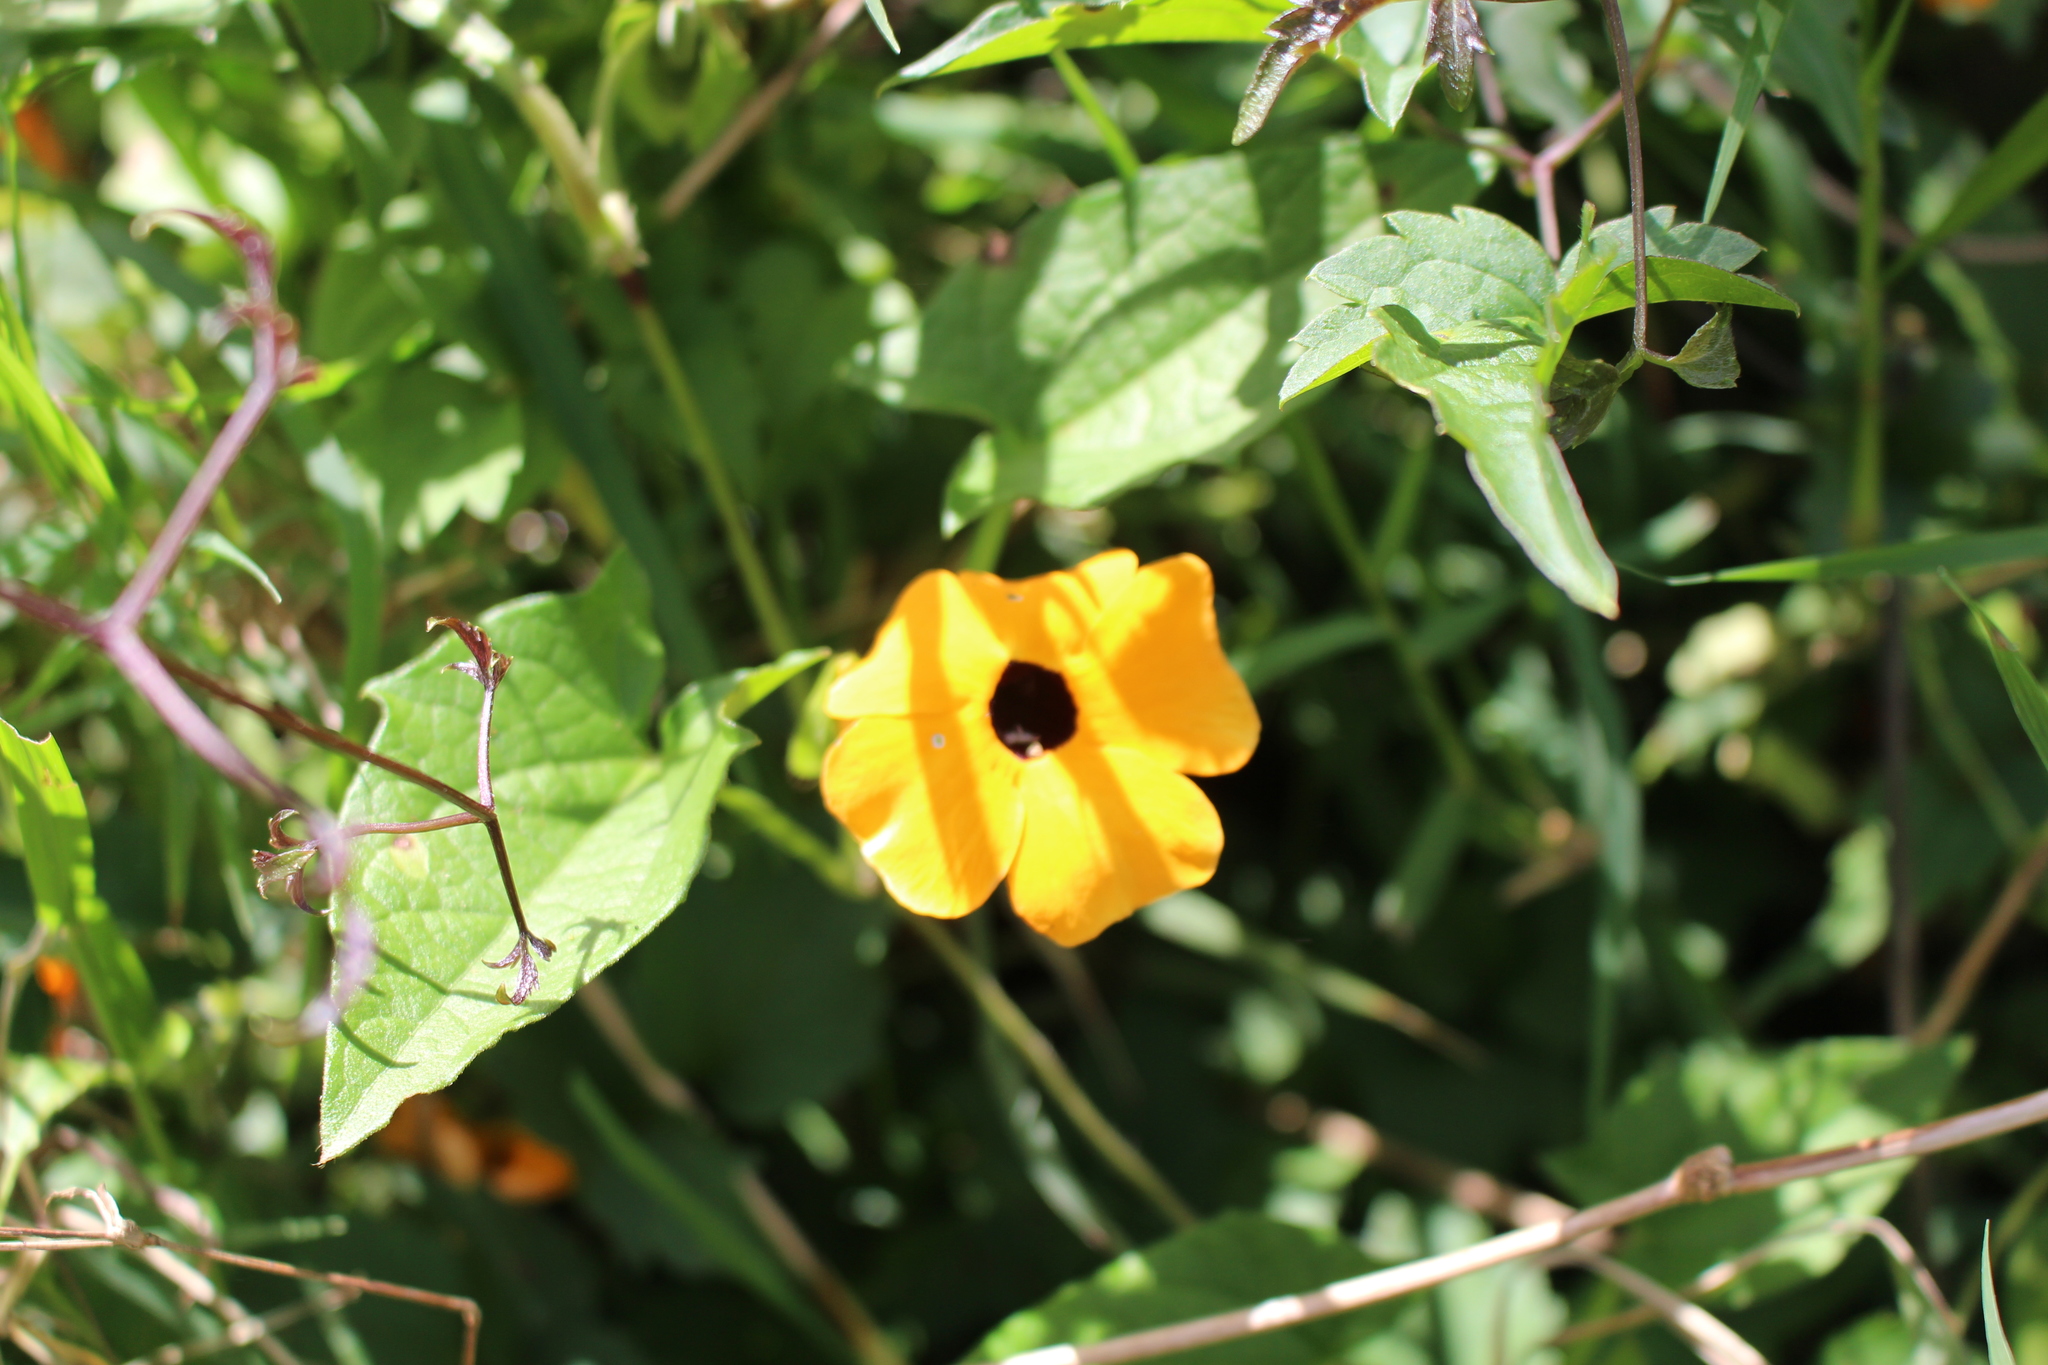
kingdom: Plantae
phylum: Tracheophyta
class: Magnoliopsida
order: Lamiales
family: Acanthaceae
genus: Thunbergia
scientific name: Thunbergia alata
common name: Blackeyed susan vine
